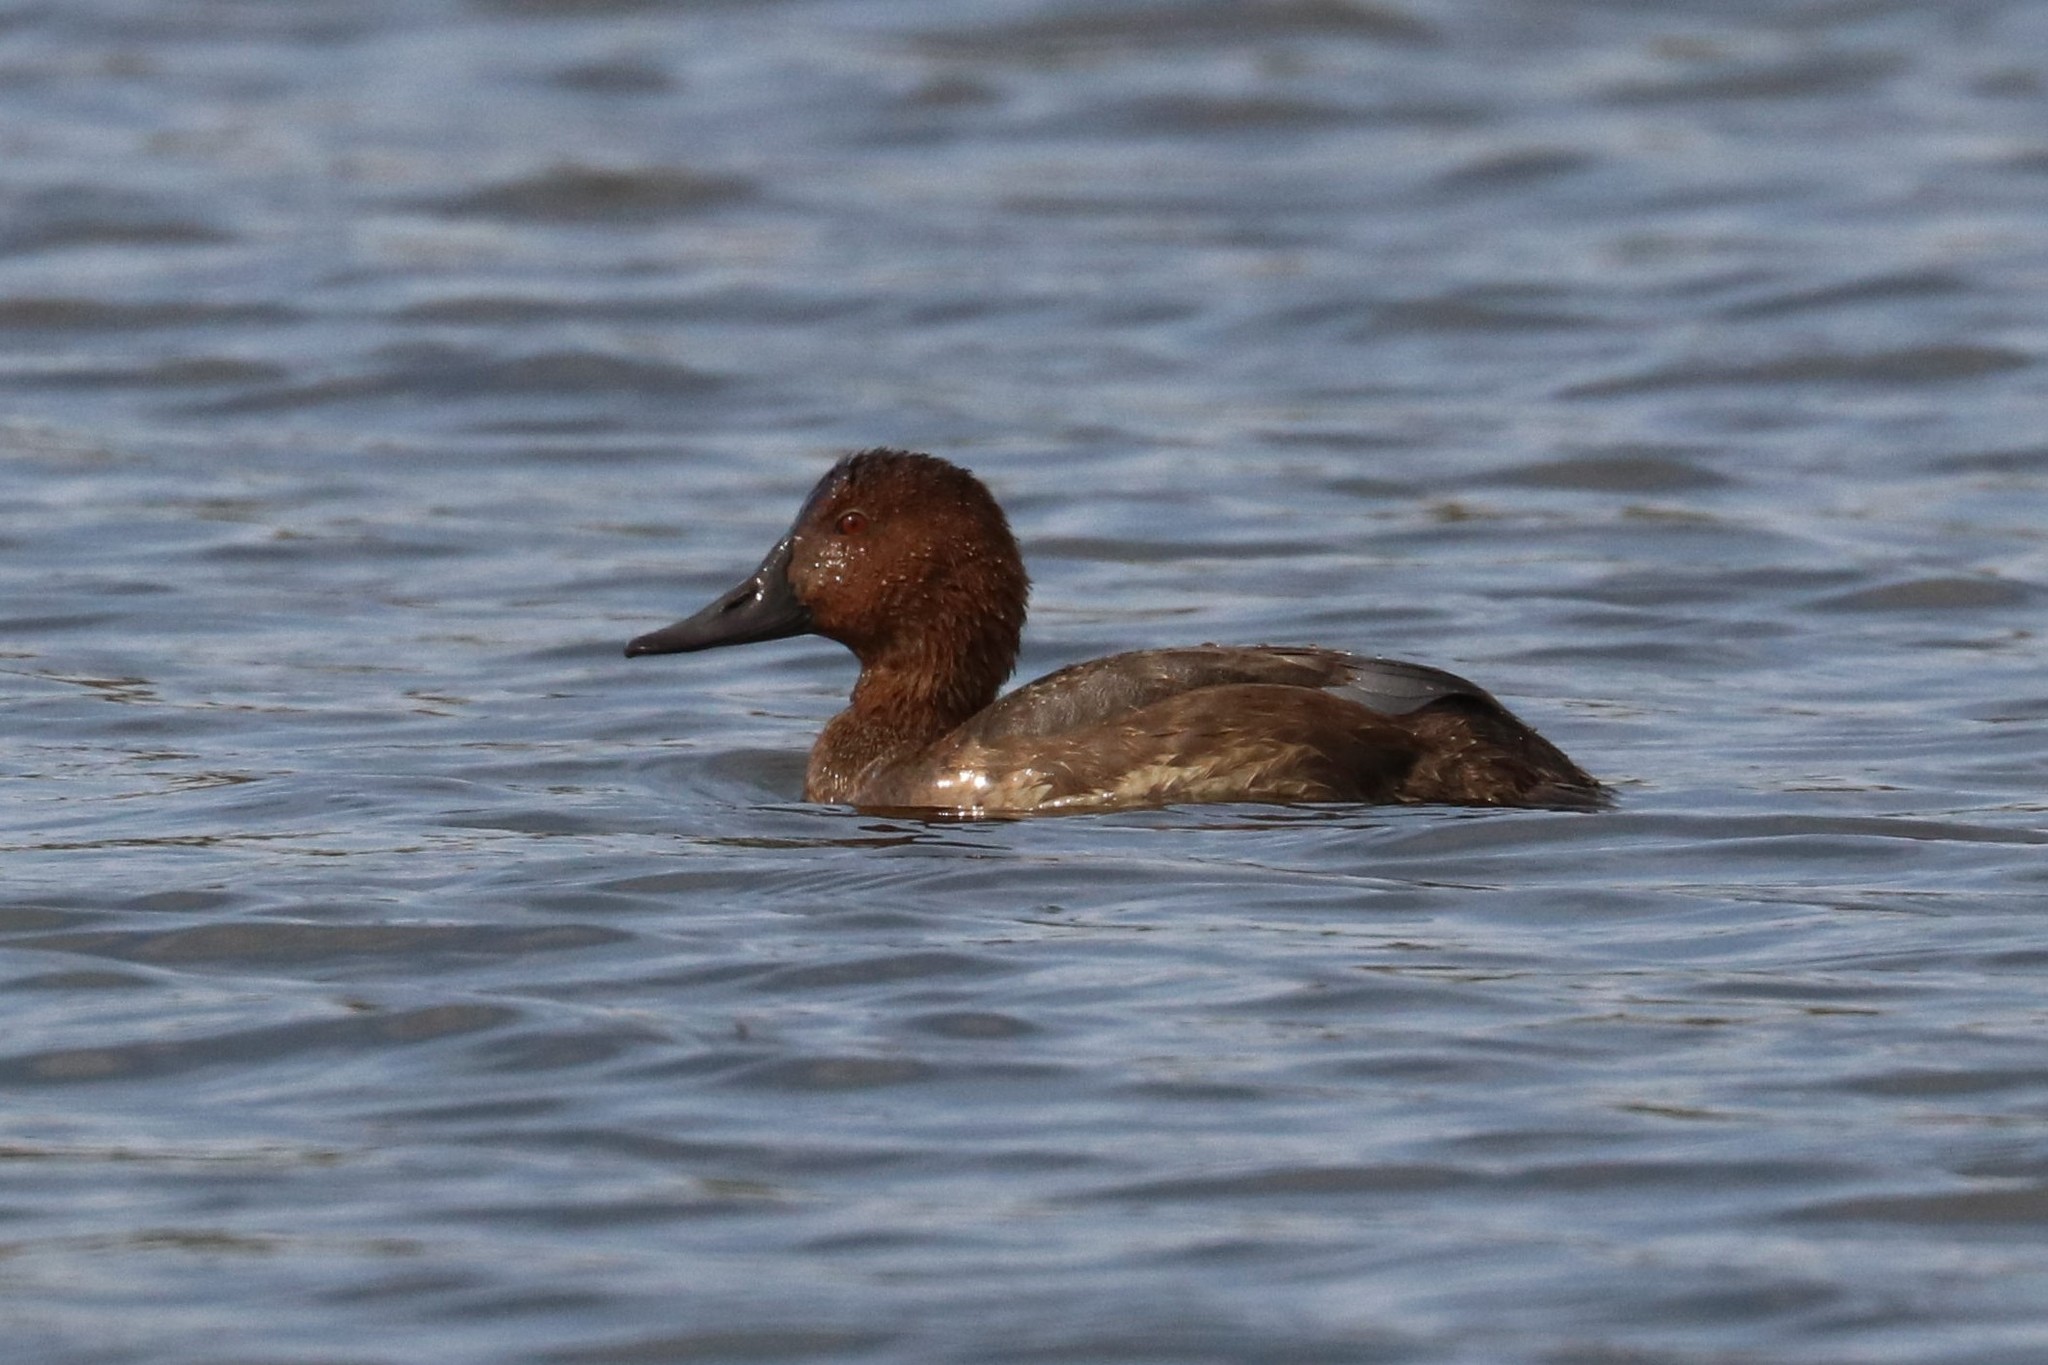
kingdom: Animalia
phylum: Chordata
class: Aves
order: Anseriformes
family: Anatidae
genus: Aythya
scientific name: Aythya ferina
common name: Common pochard
